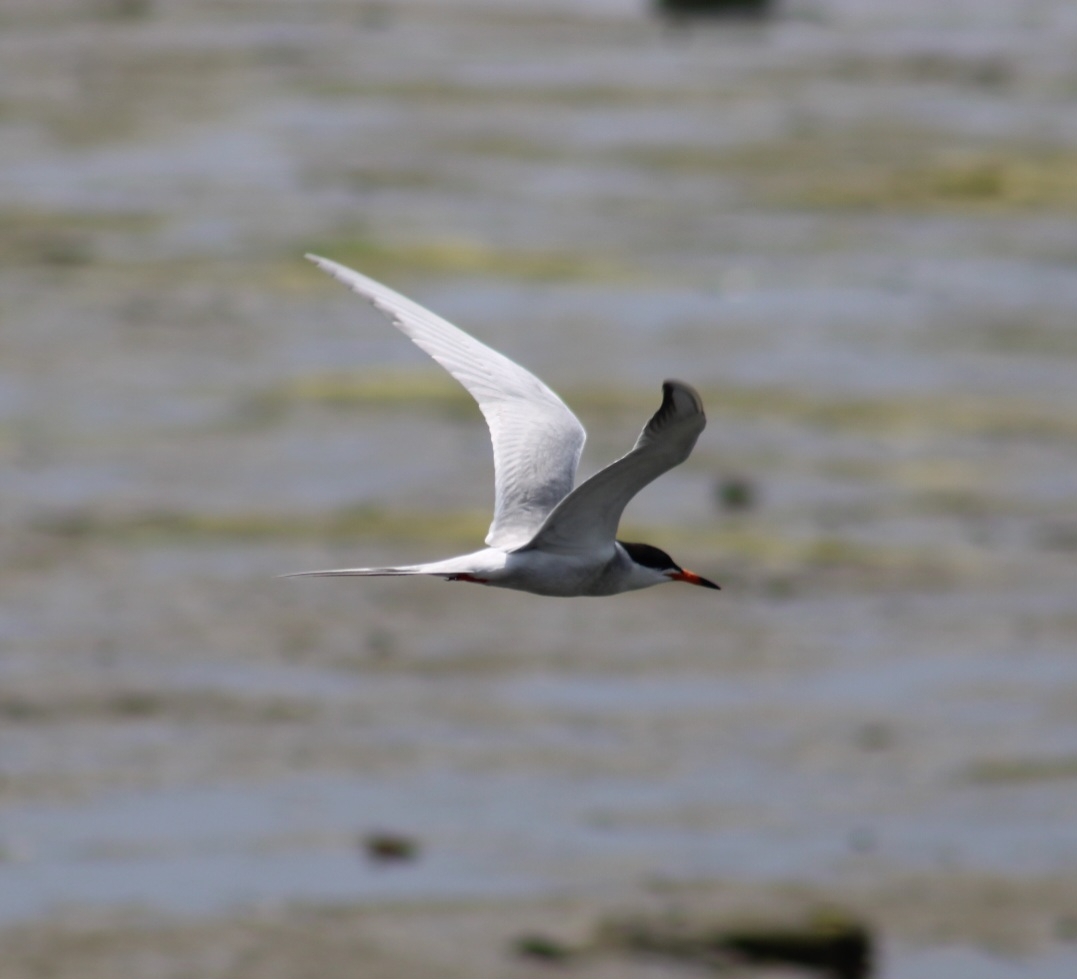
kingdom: Animalia
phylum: Chordata
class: Aves
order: Charadriiformes
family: Laridae
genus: Sterna
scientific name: Sterna forsteri
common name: Forster's tern
